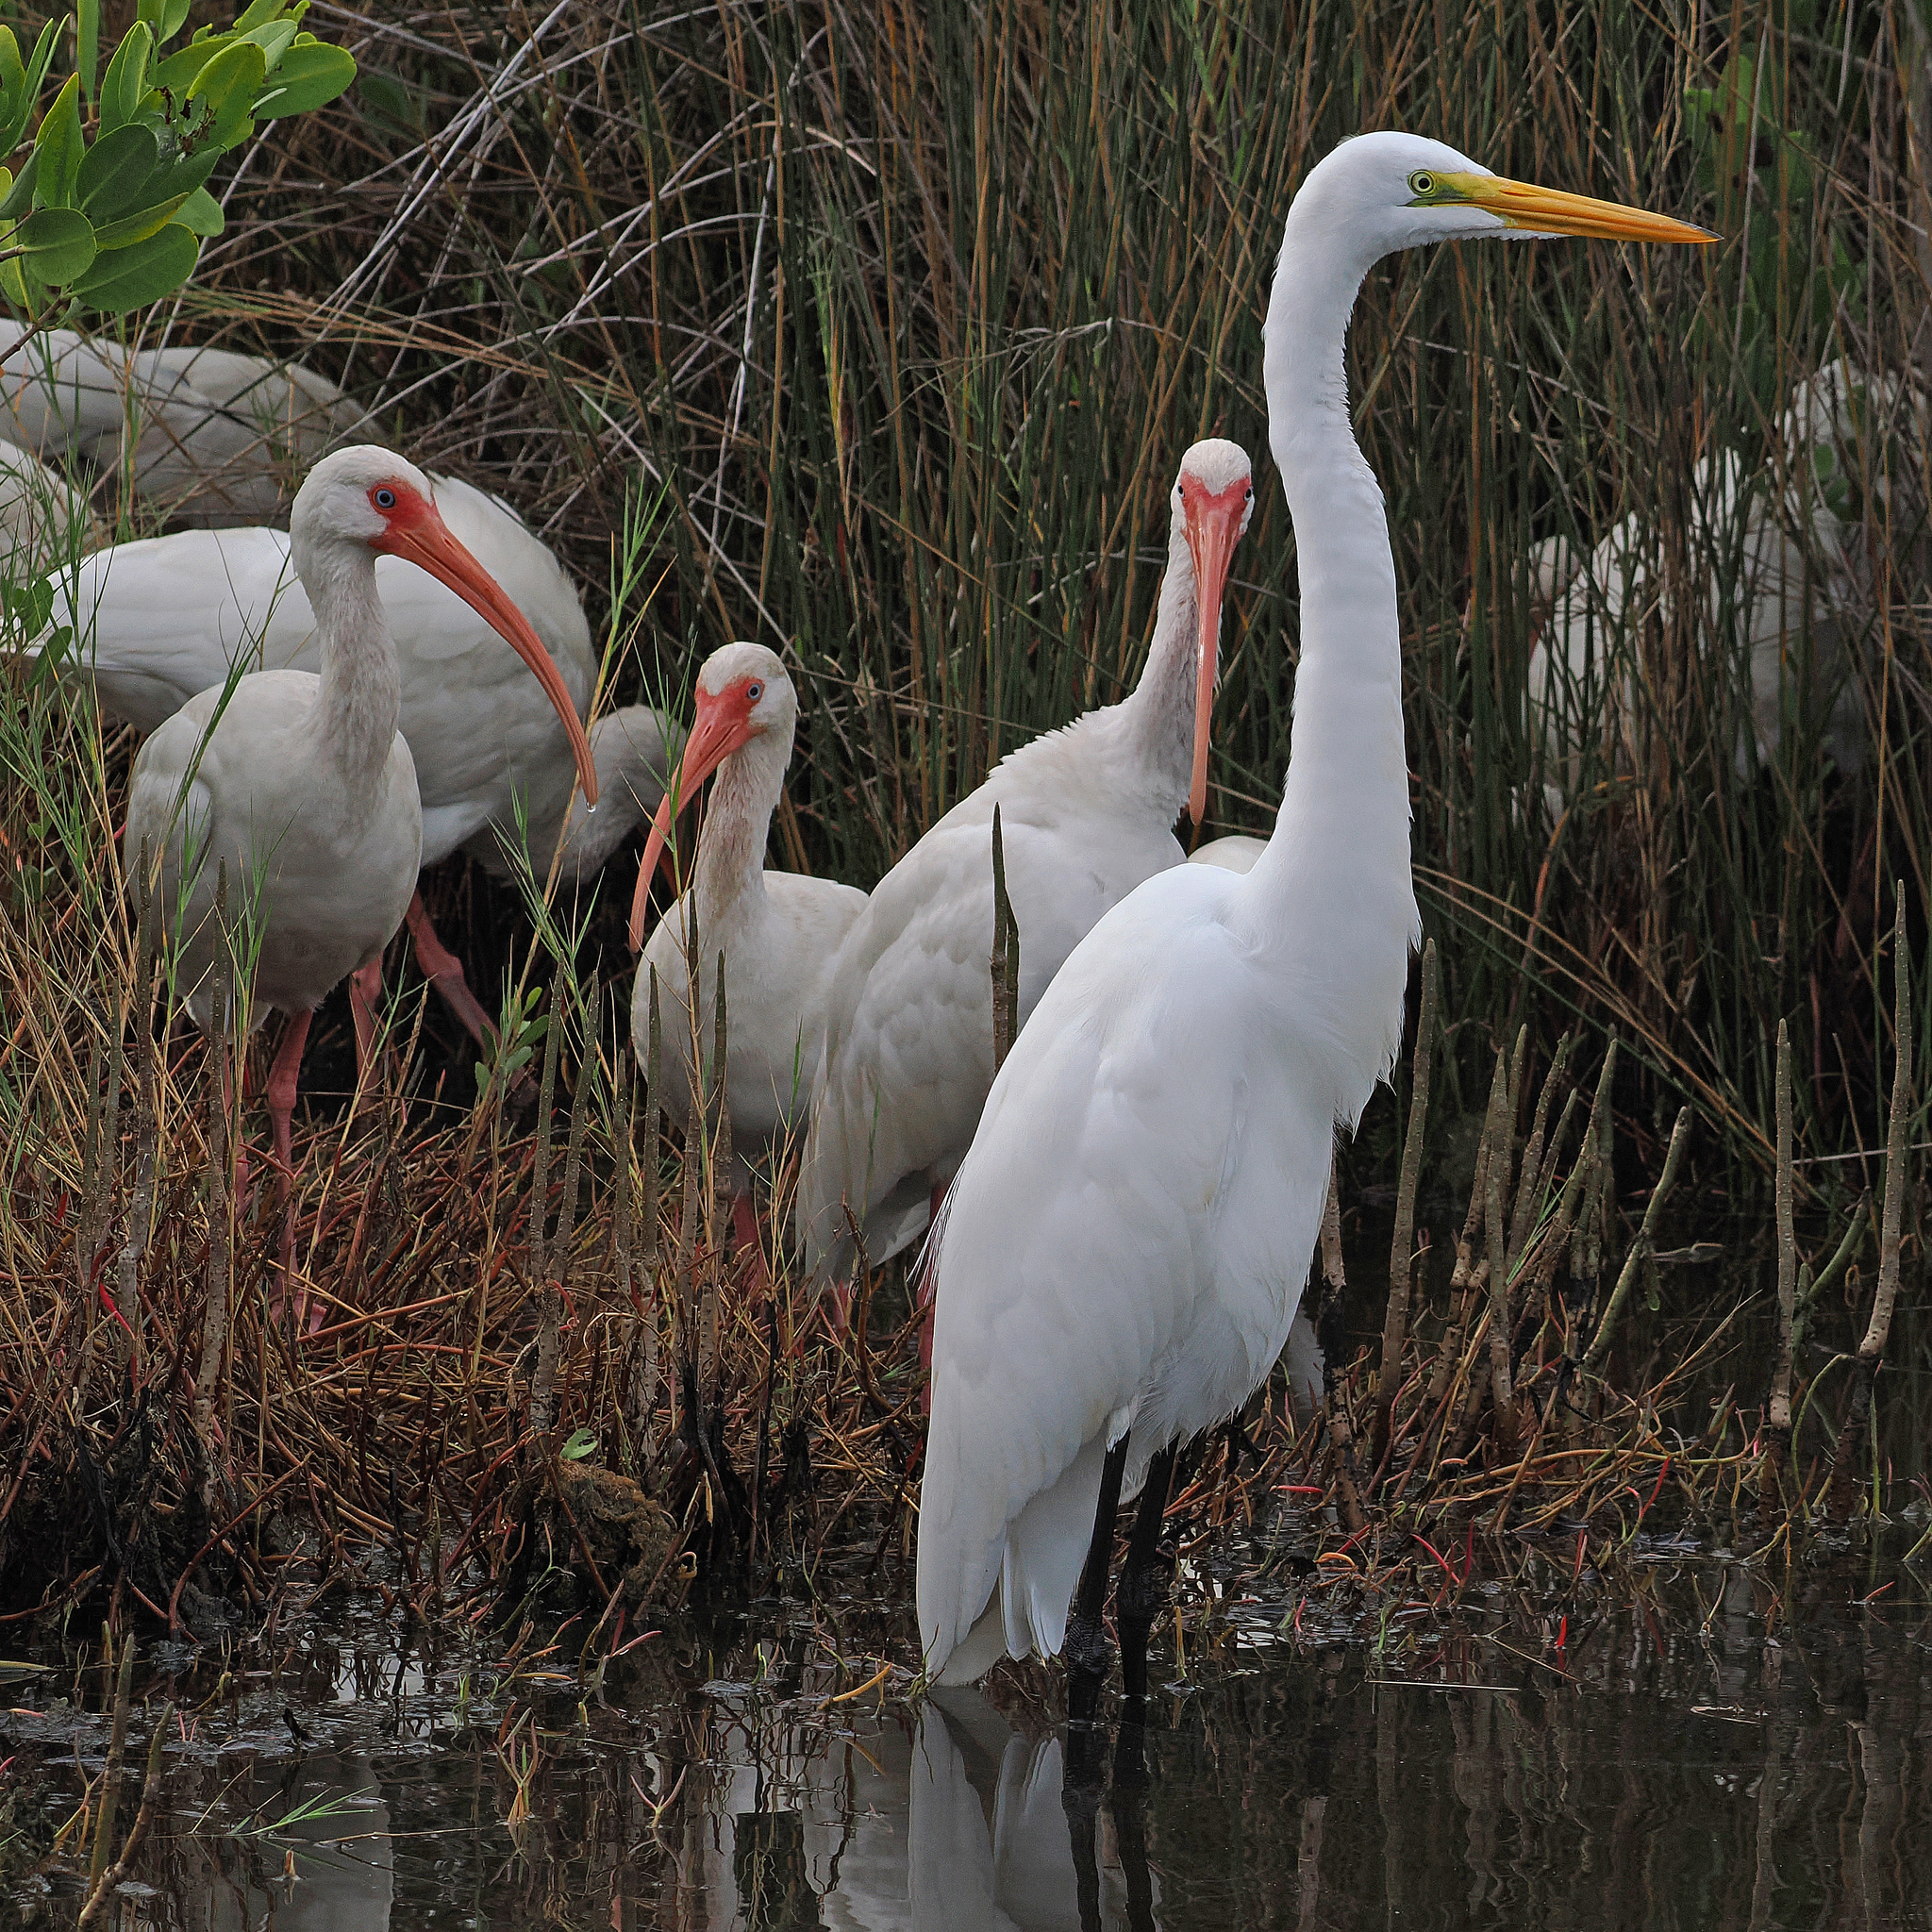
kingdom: Animalia
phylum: Chordata
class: Aves
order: Pelecaniformes
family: Ardeidae
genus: Ardea
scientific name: Ardea alba
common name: Great egret
